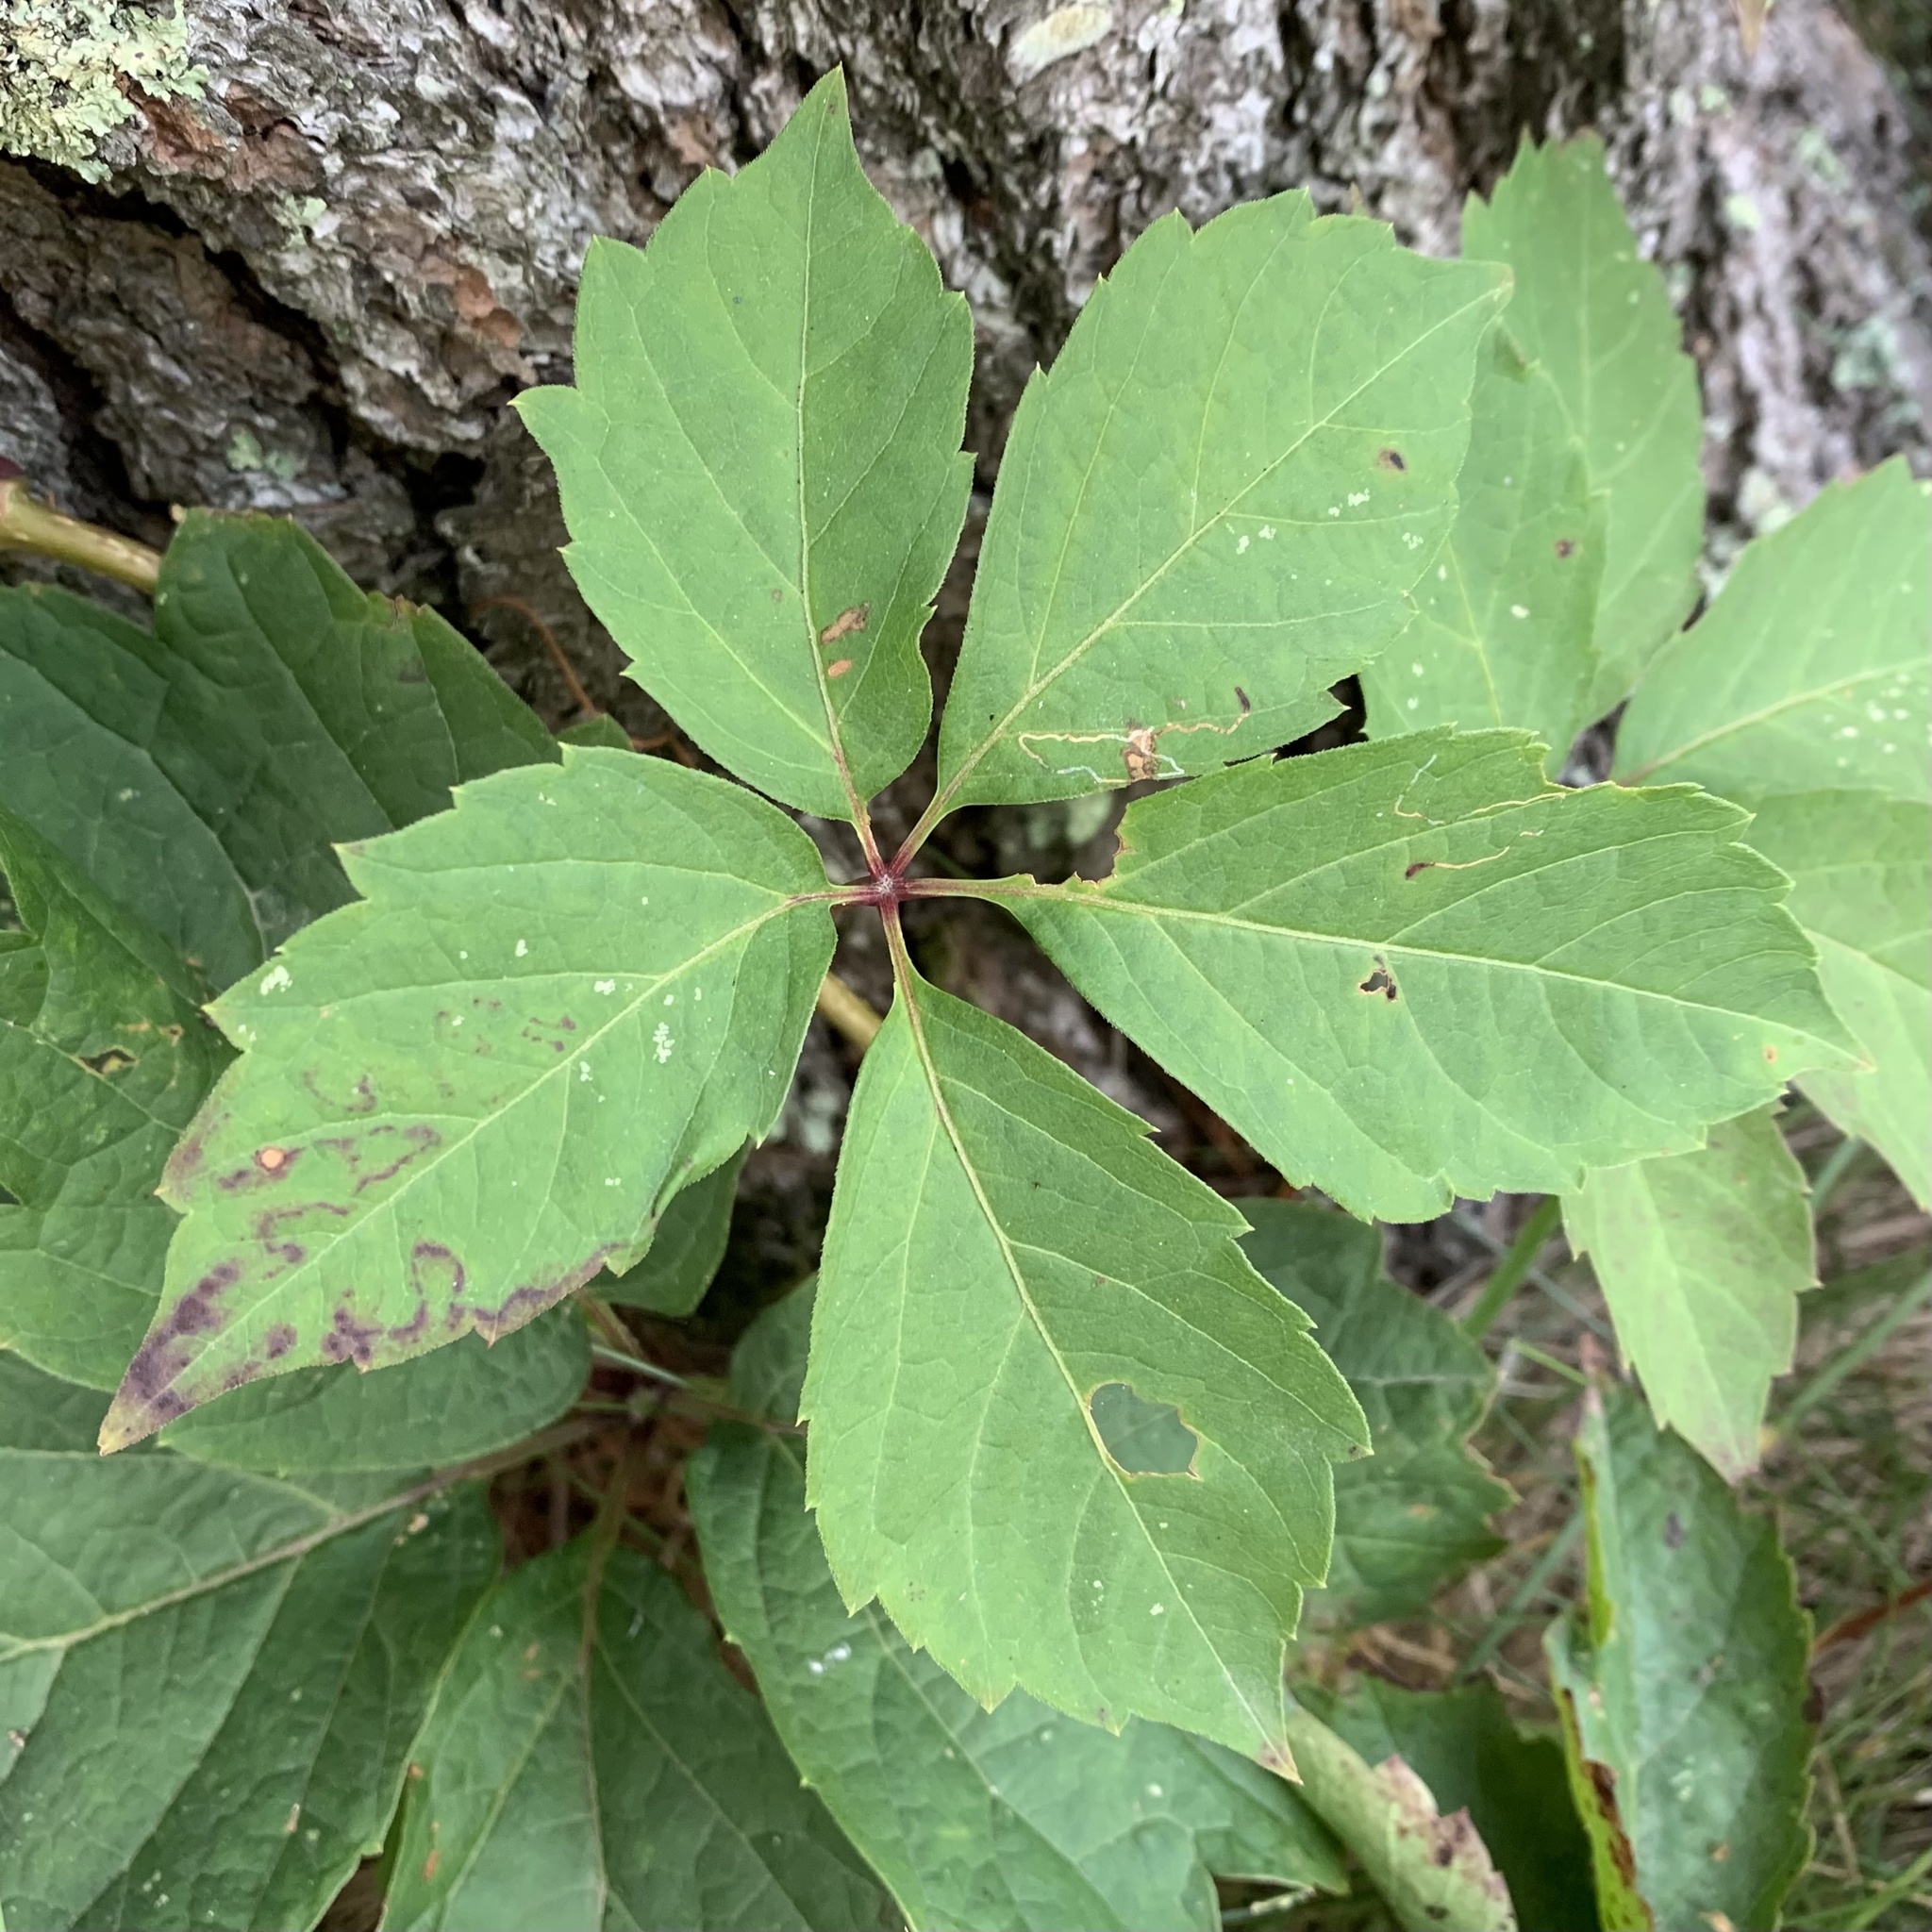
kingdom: Animalia
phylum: Arthropoda
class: Insecta
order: Lepidoptera
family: Gracillariidae
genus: Phyllocnistis
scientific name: Phyllocnistis ampelopsiella
